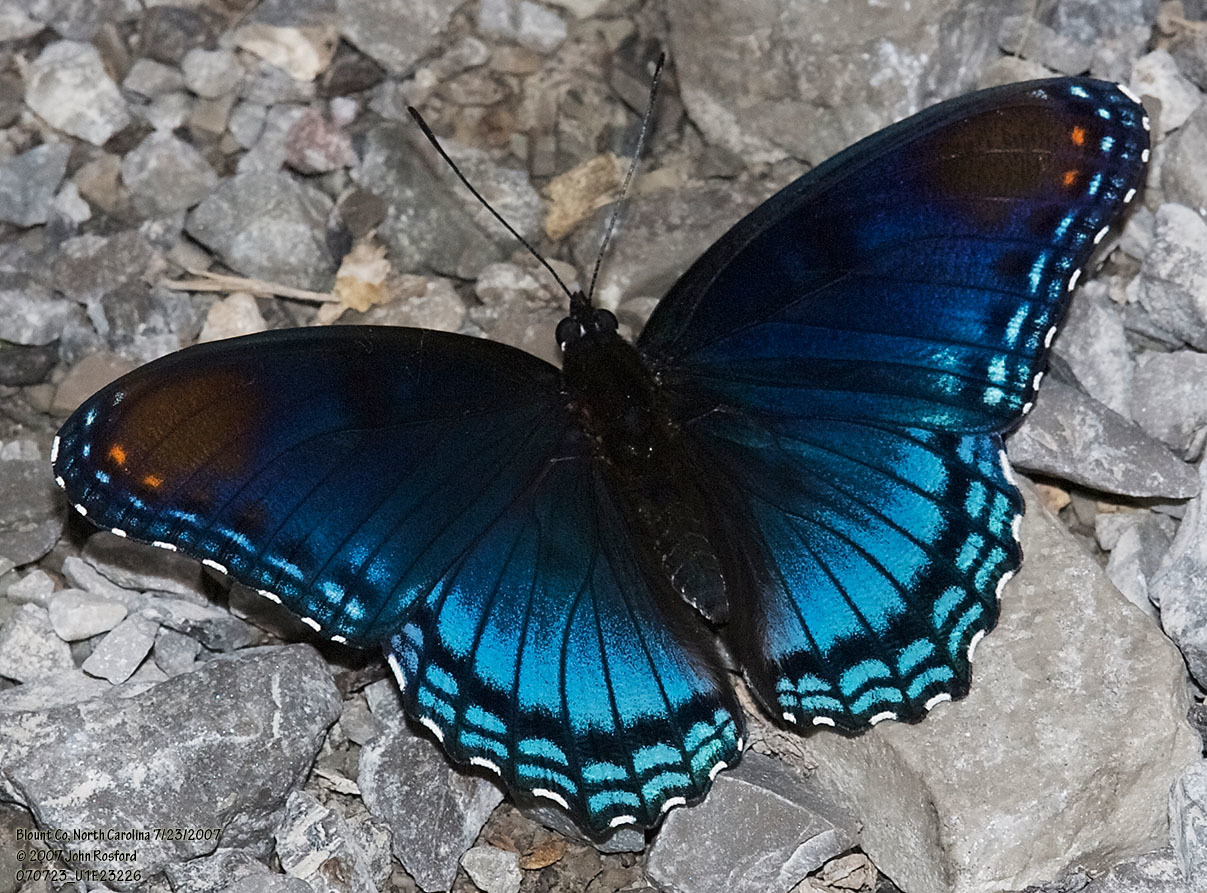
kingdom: Animalia
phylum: Arthropoda
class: Insecta
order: Lepidoptera
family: Nymphalidae
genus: Limenitis
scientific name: Limenitis astyanax
